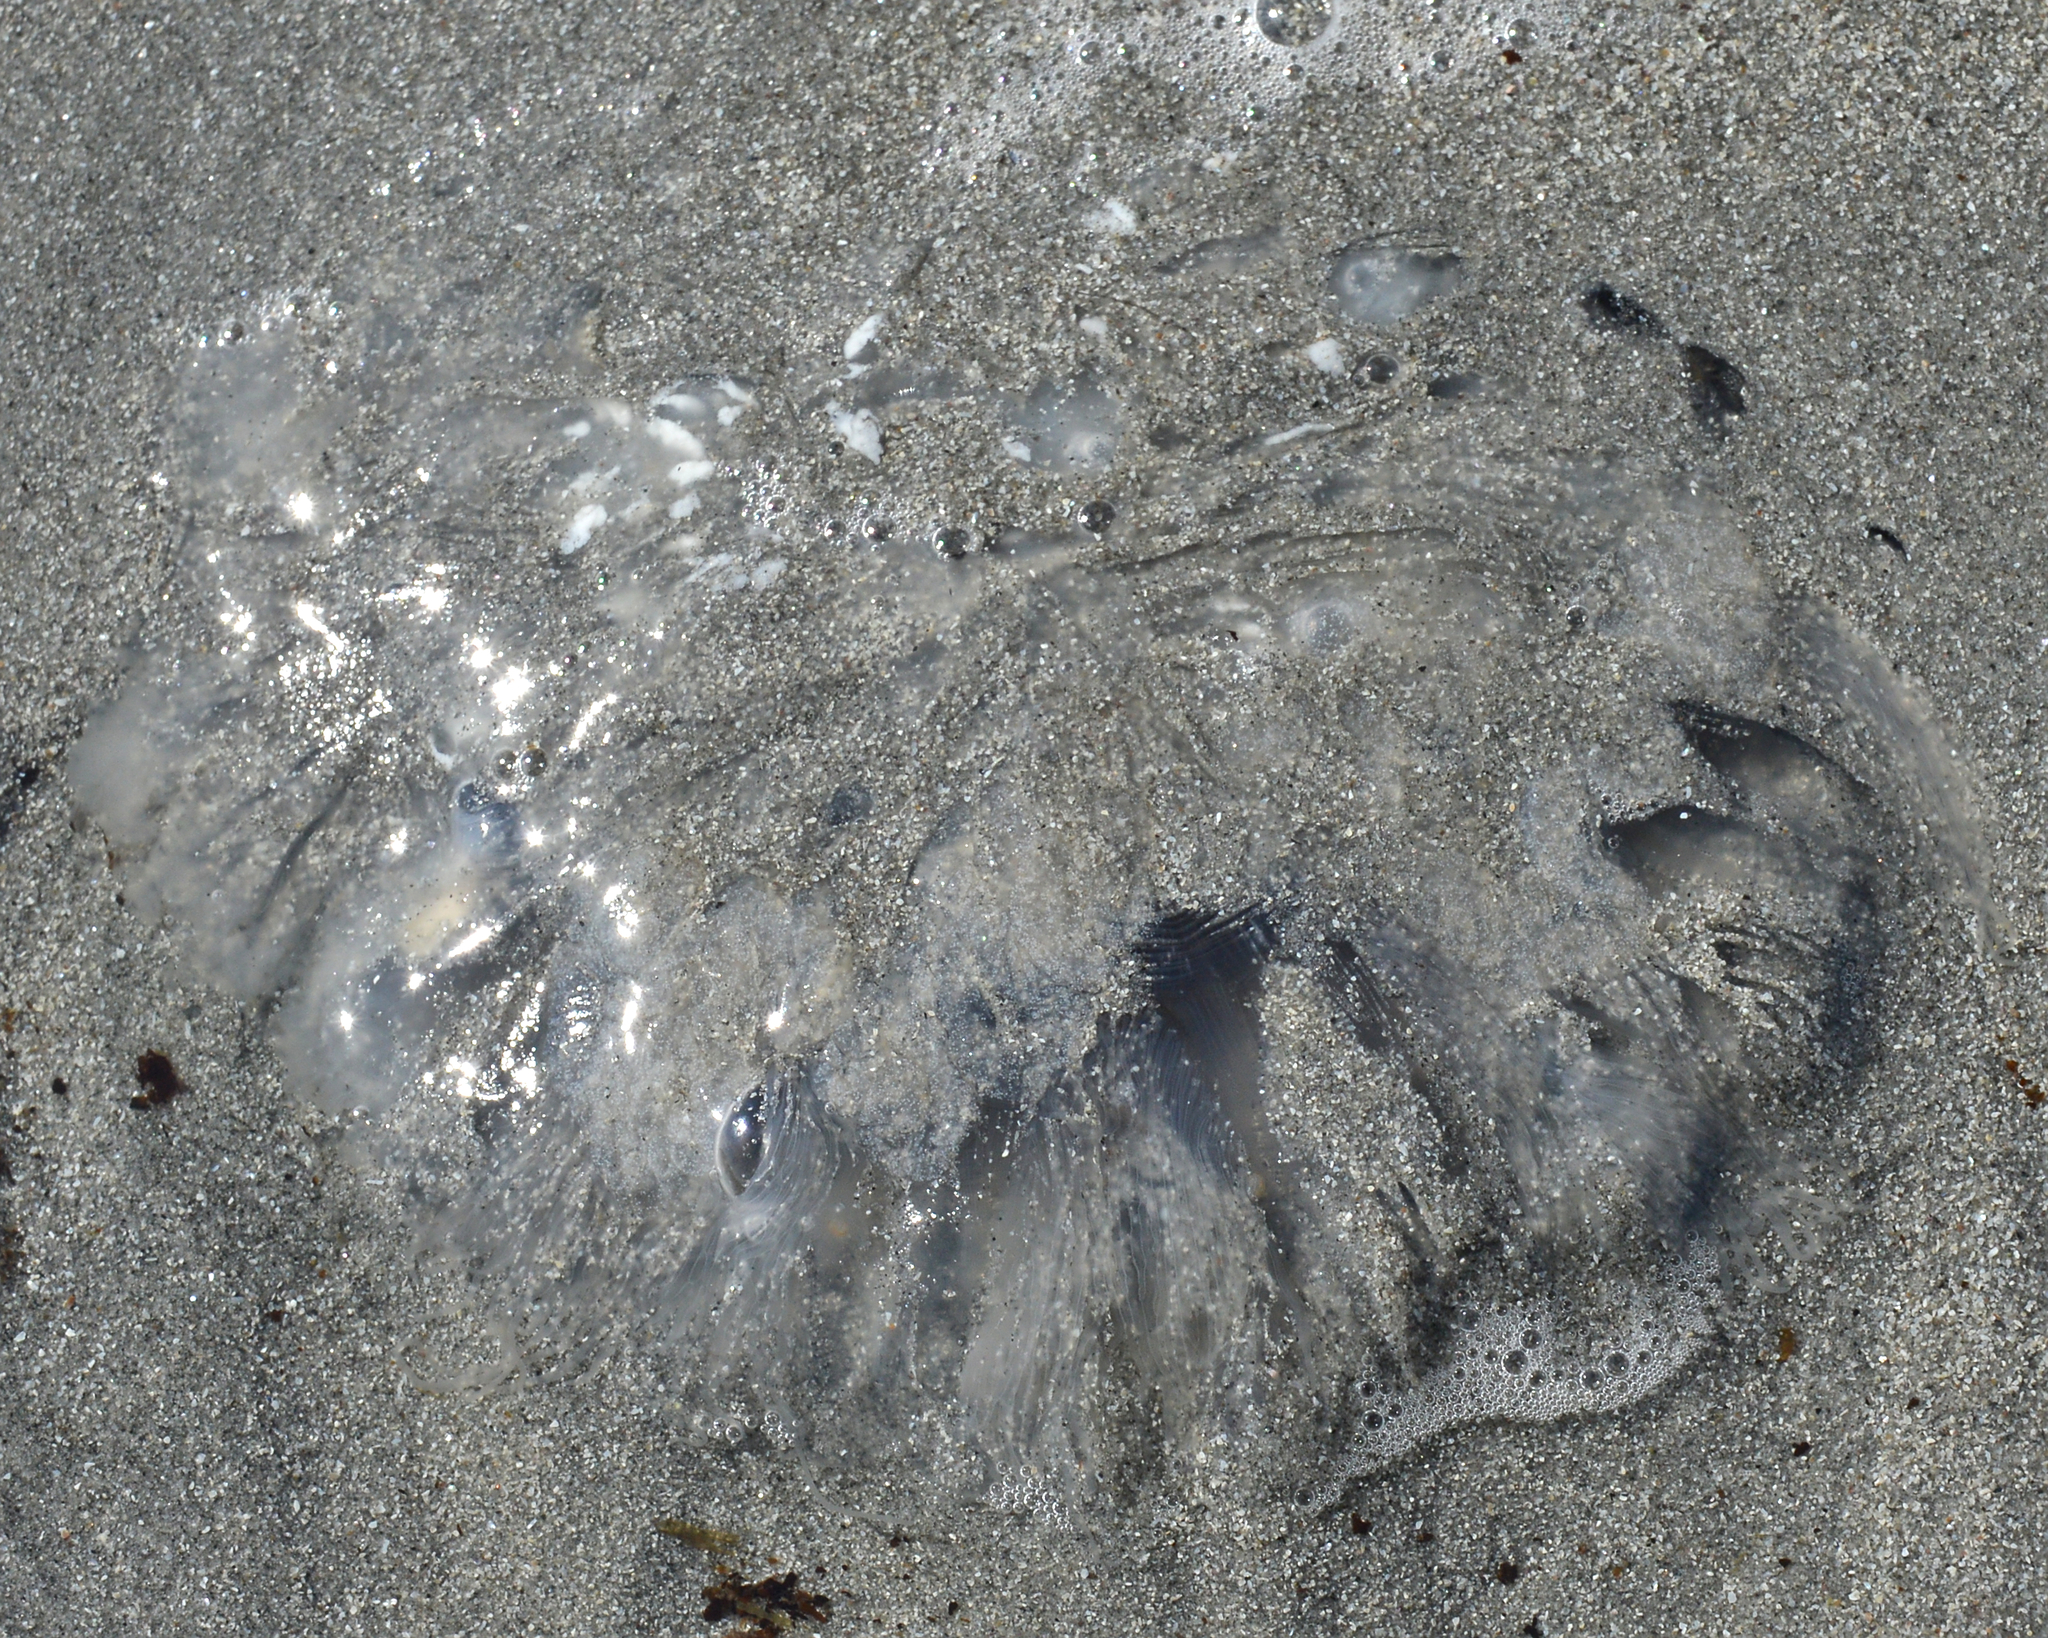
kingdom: Animalia
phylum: Cnidaria
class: Scyphozoa
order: Semaeostomeae
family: Cyaneidae
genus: Cyanea
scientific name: Cyanea lamarckii
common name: Blue jellyfish
